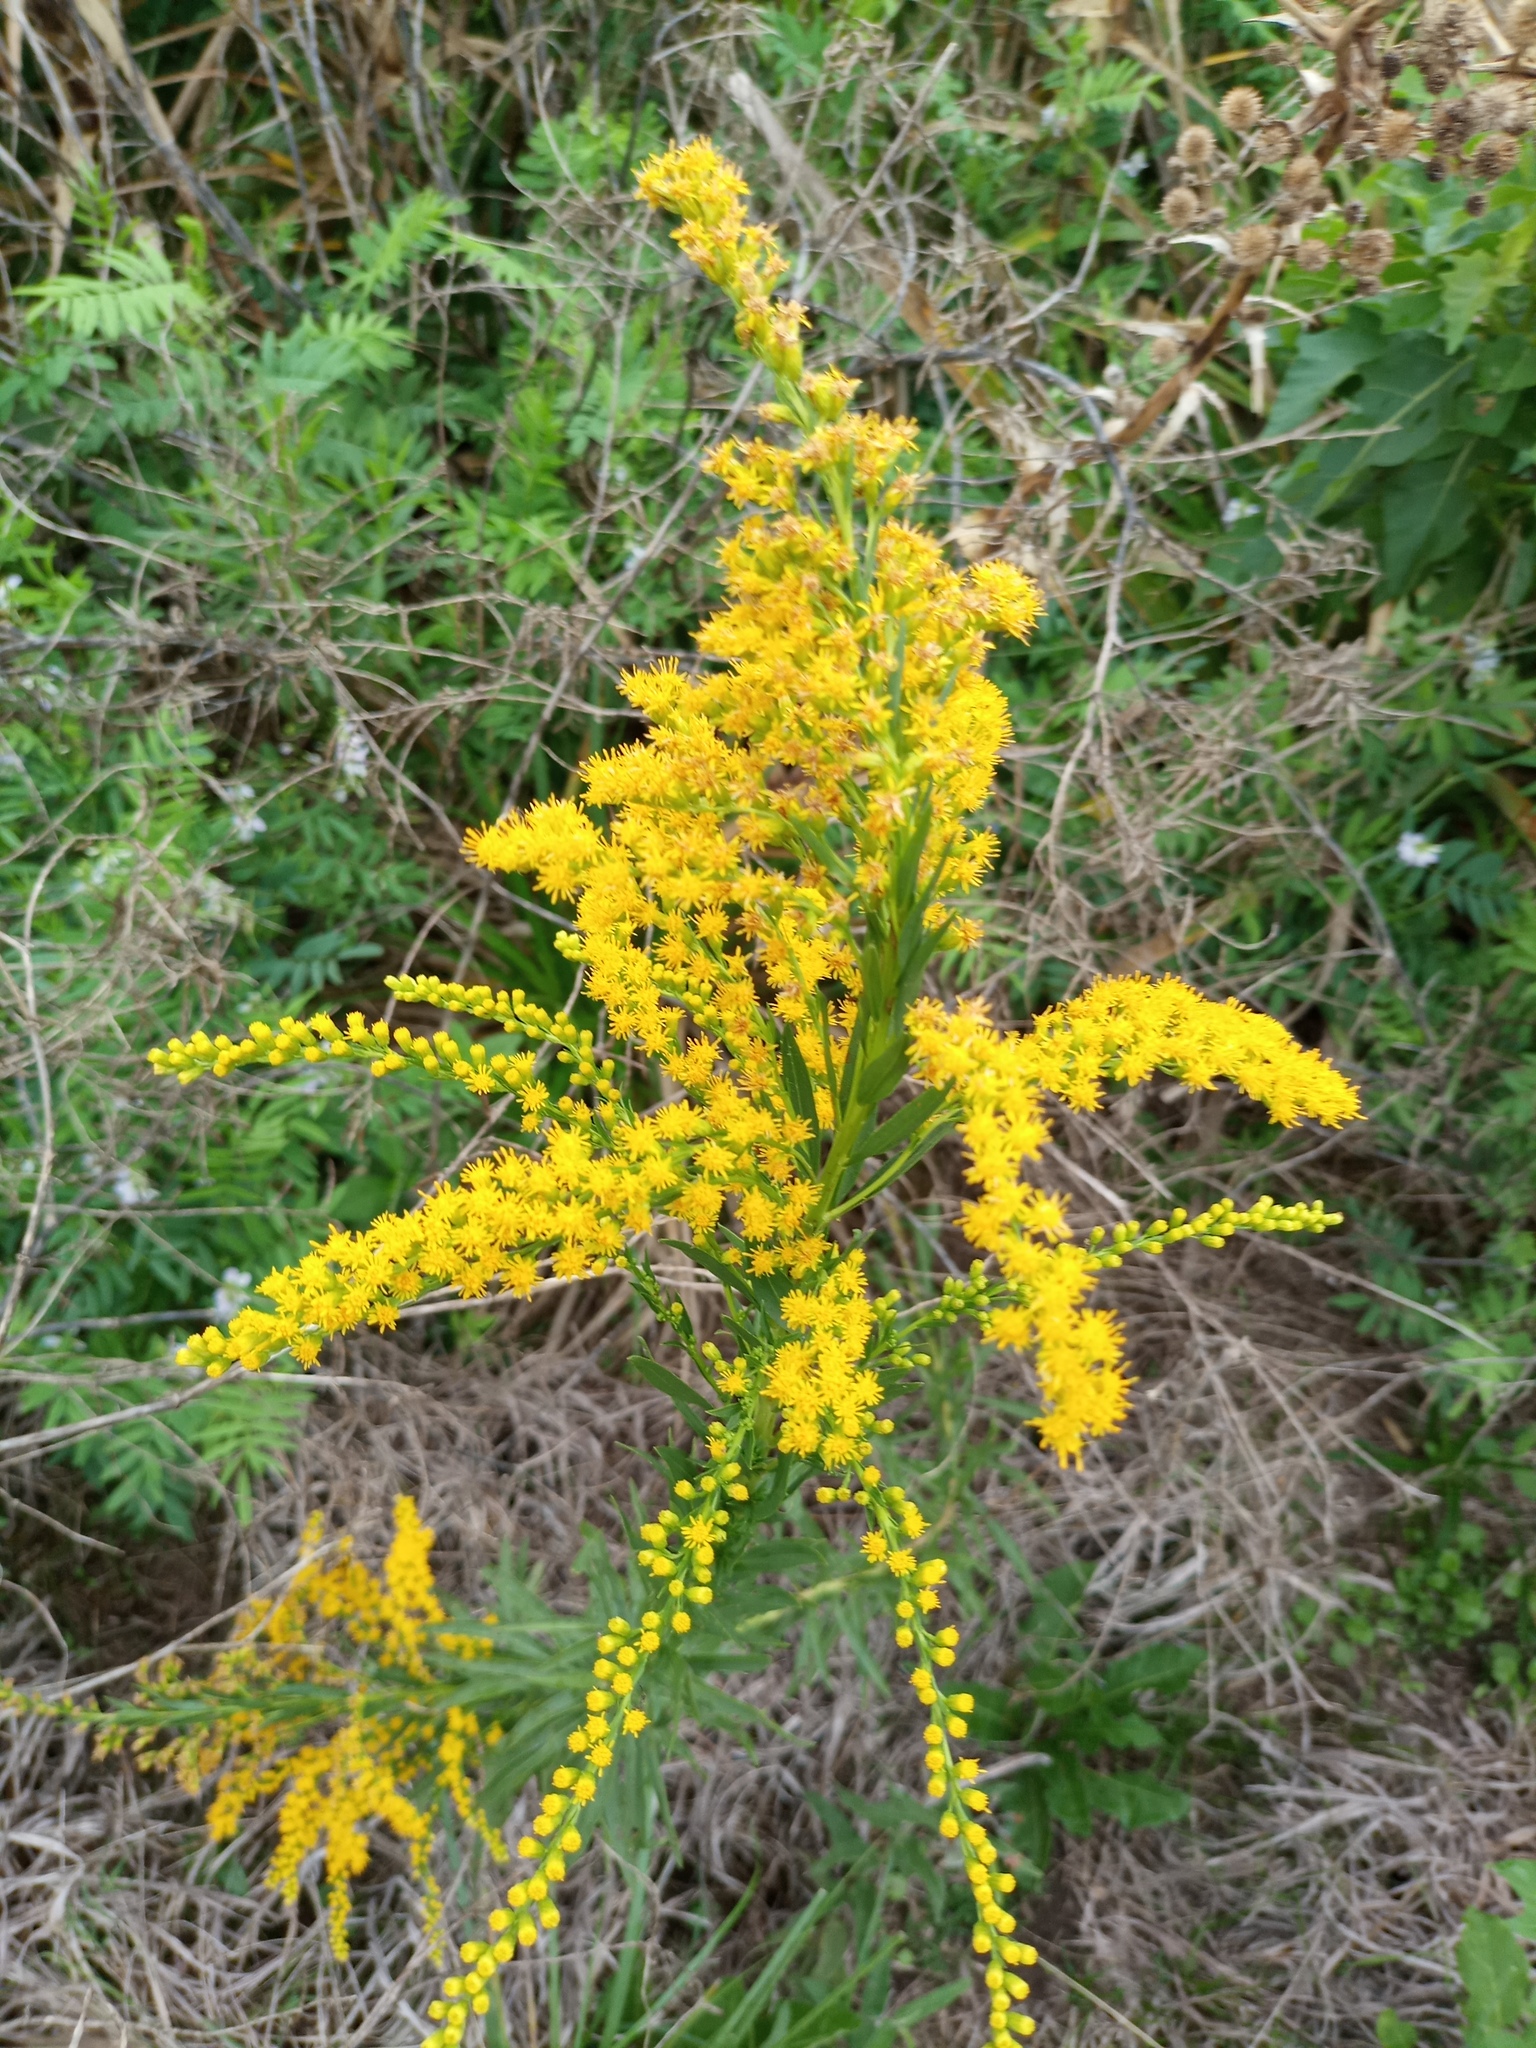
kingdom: Plantae
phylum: Tracheophyta
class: Magnoliopsida
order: Asterales
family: Asteraceae
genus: Solidago
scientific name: Solidago chilensis
